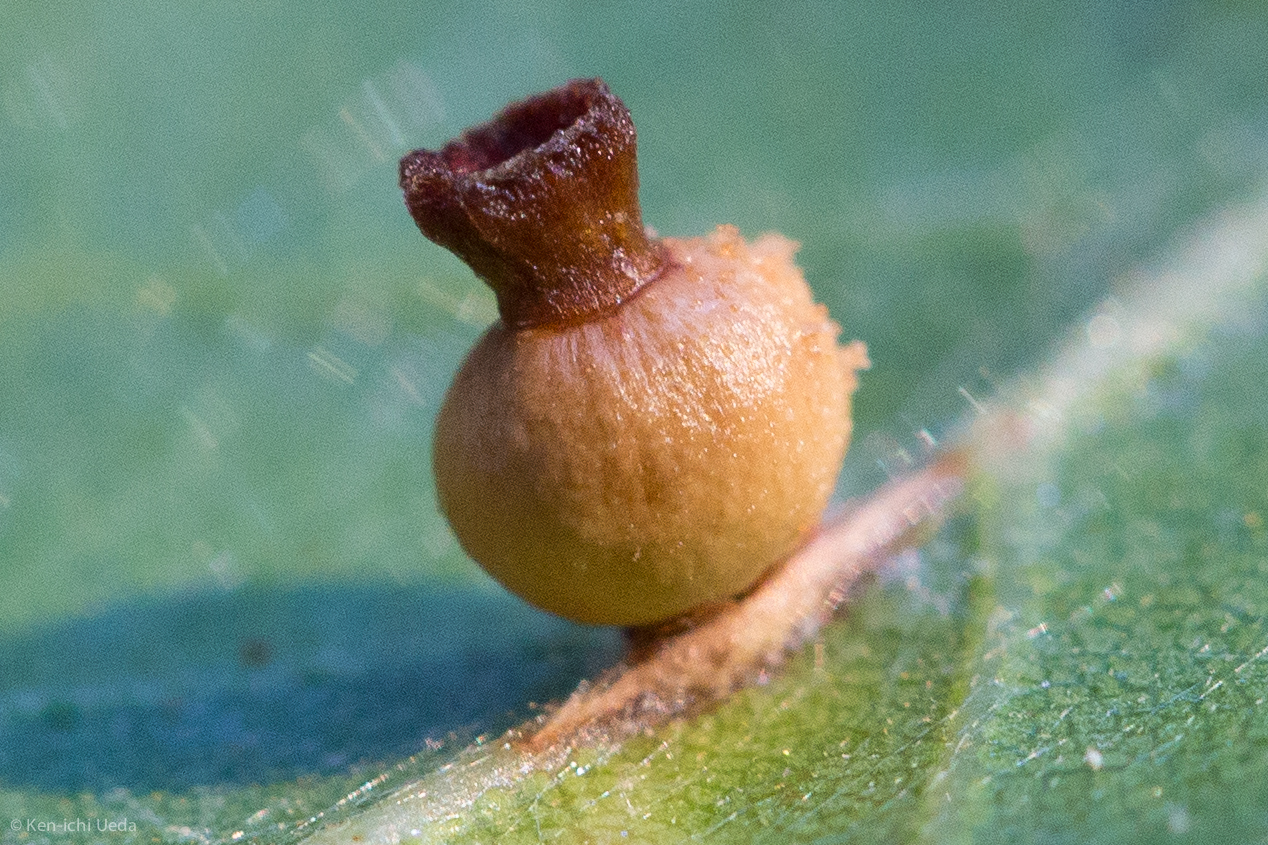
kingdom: Animalia
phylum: Arthropoda
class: Insecta
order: Hymenoptera
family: Cynipidae
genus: Callirhytis
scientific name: Callirhytis
